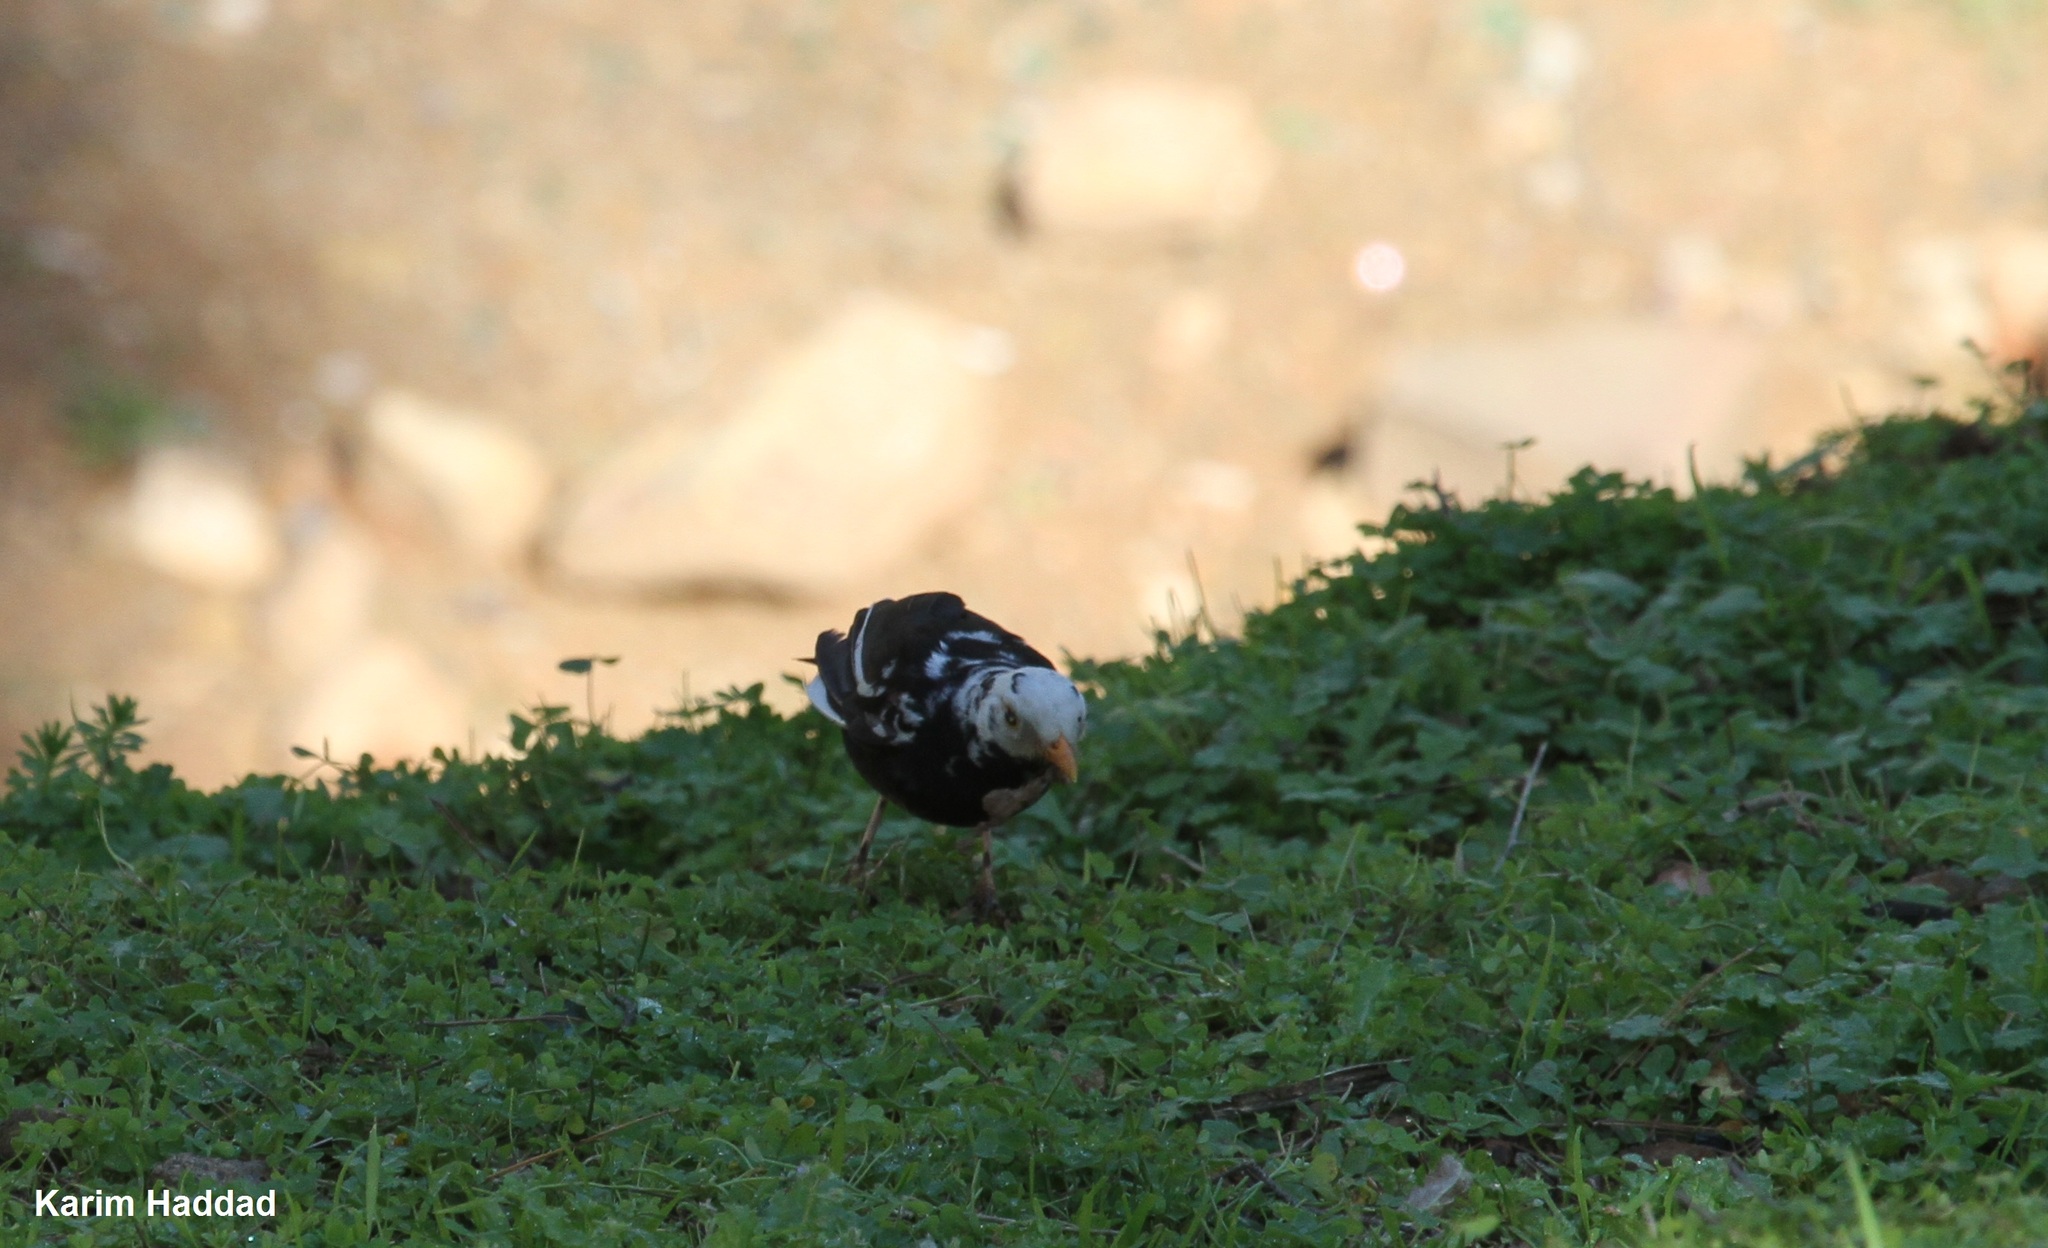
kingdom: Animalia
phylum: Chordata
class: Aves
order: Passeriformes
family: Turdidae
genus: Turdus
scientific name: Turdus merula
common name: Common blackbird
